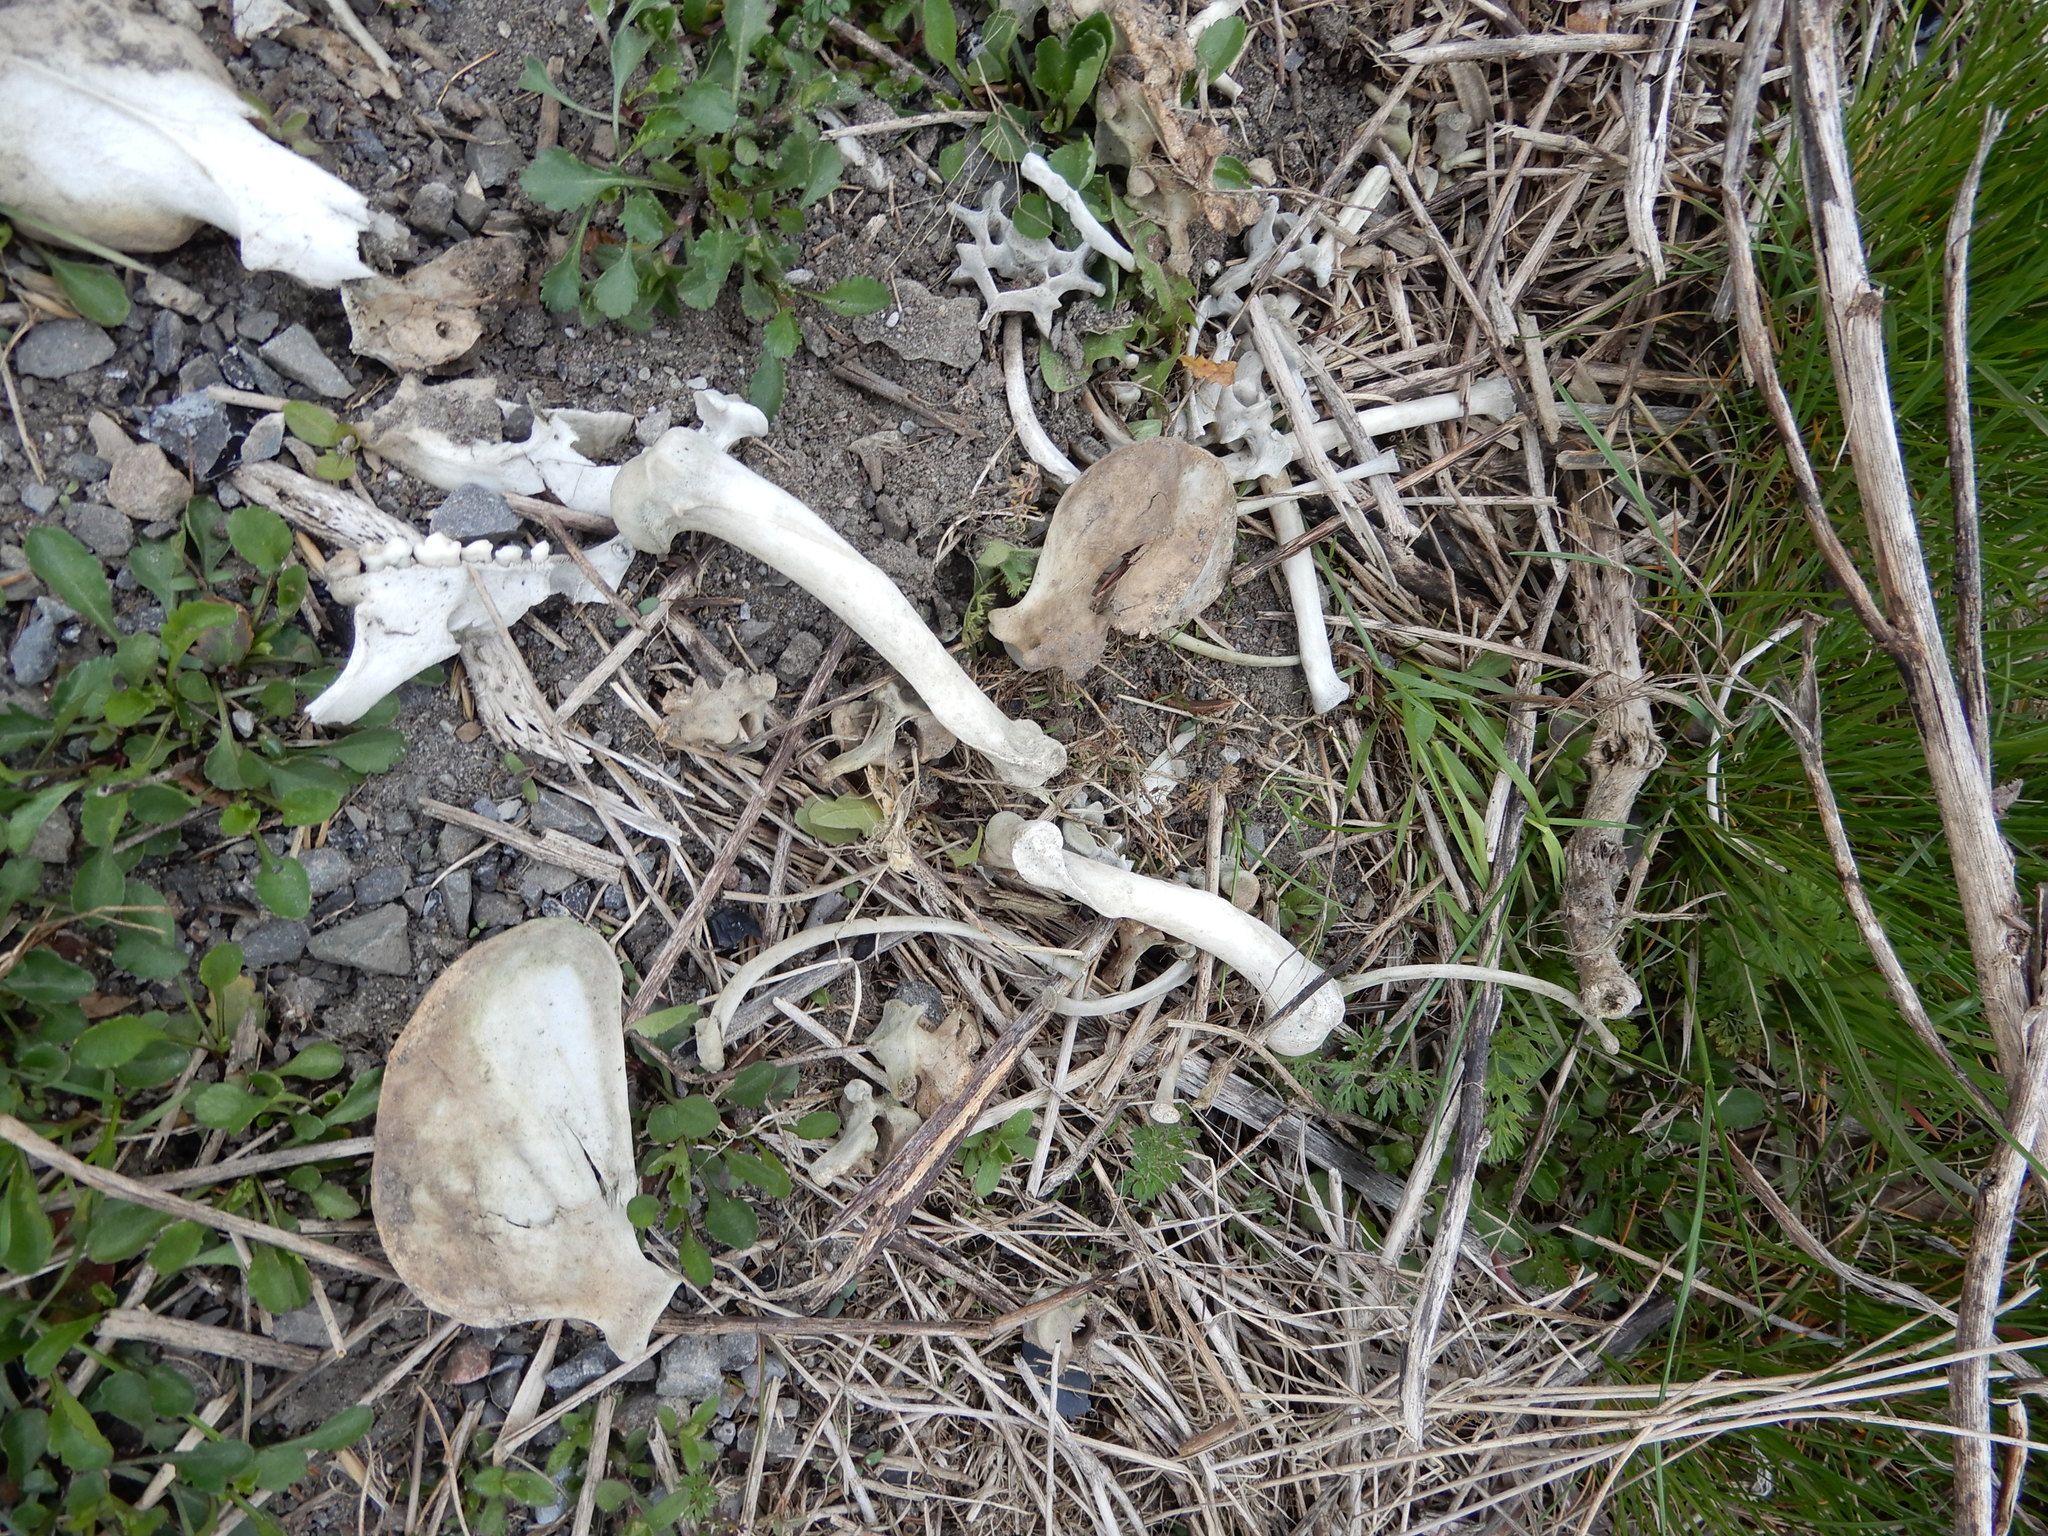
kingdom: Animalia
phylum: Chordata
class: Mammalia
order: Carnivora
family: Procyonidae
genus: Procyon
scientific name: Procyon lotor
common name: Raccoon
